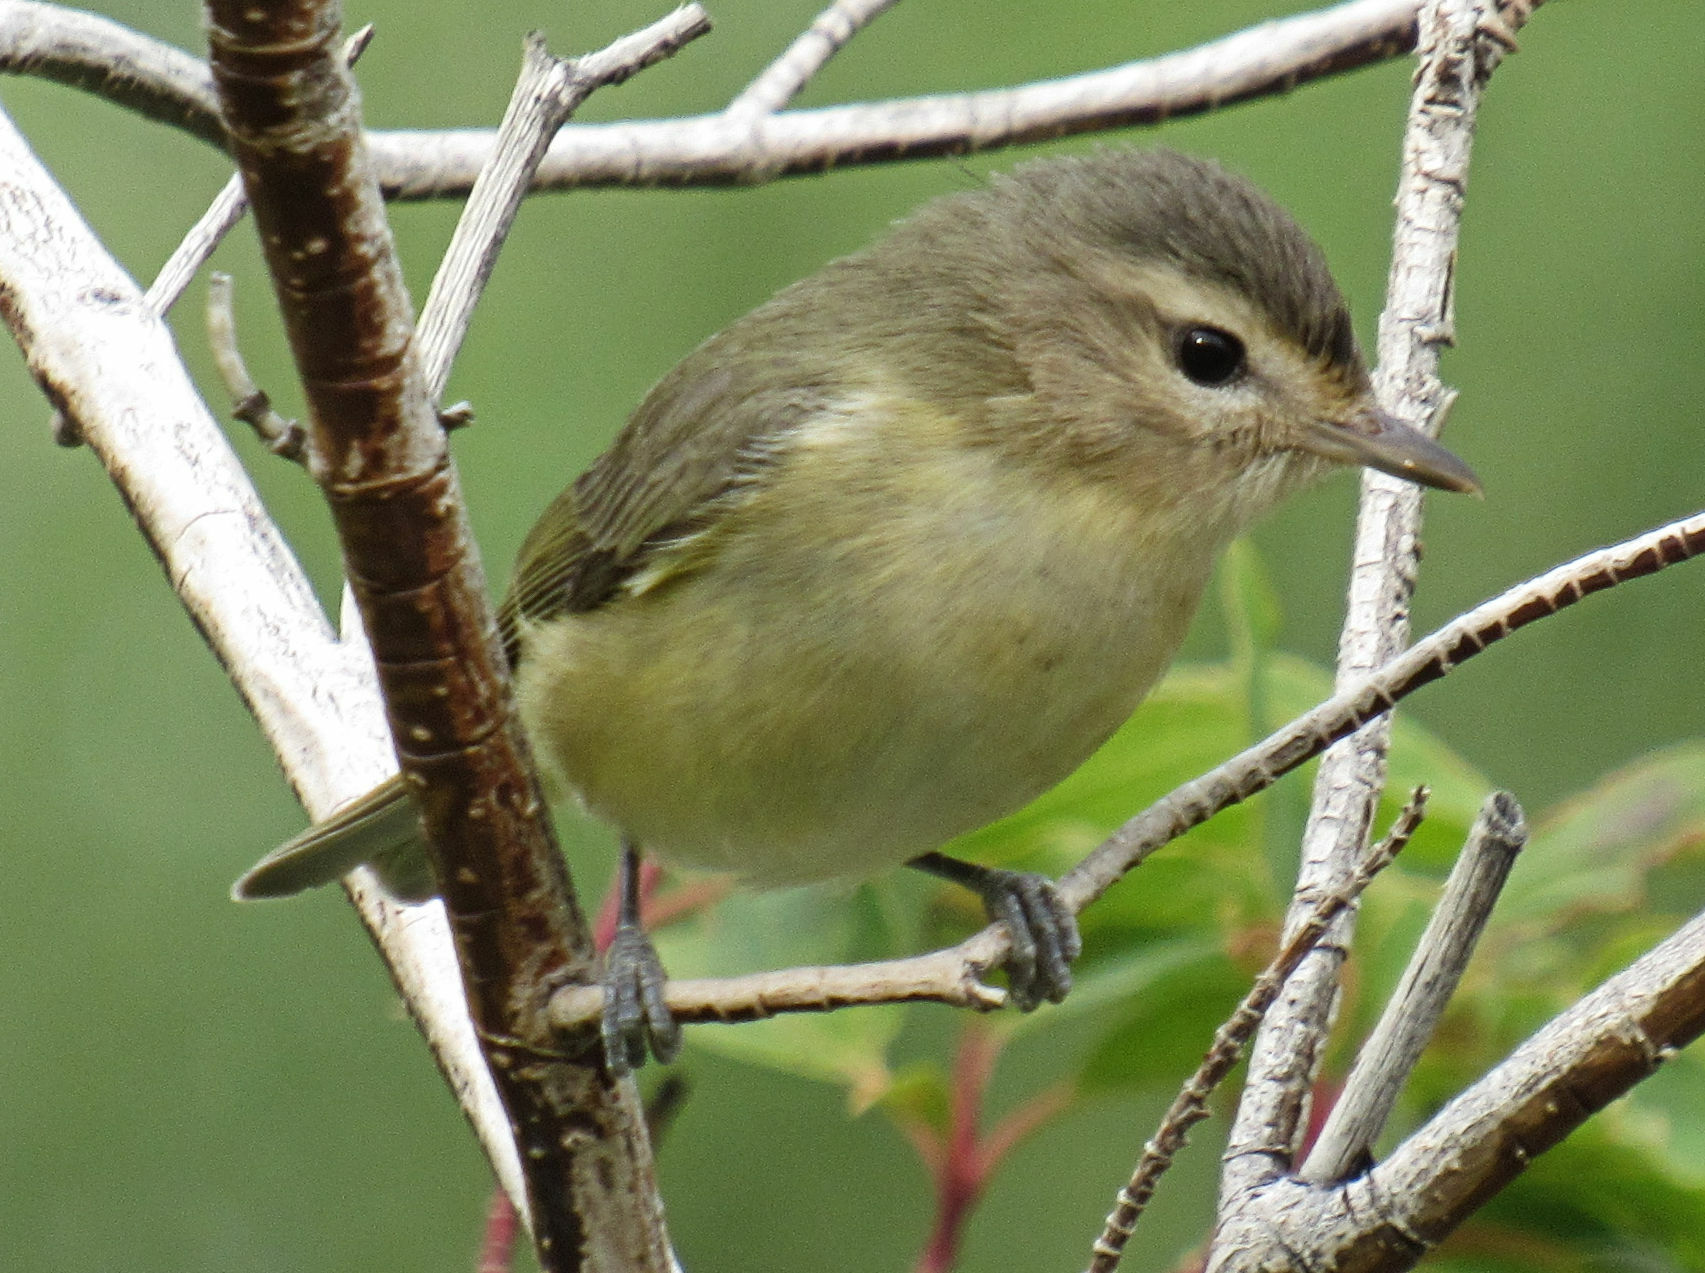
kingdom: Animalia
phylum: Chordata
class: Aves
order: Passeriformes
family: Vireonidae
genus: Vireo
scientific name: Vireo gilvus
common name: Warbling vireo
